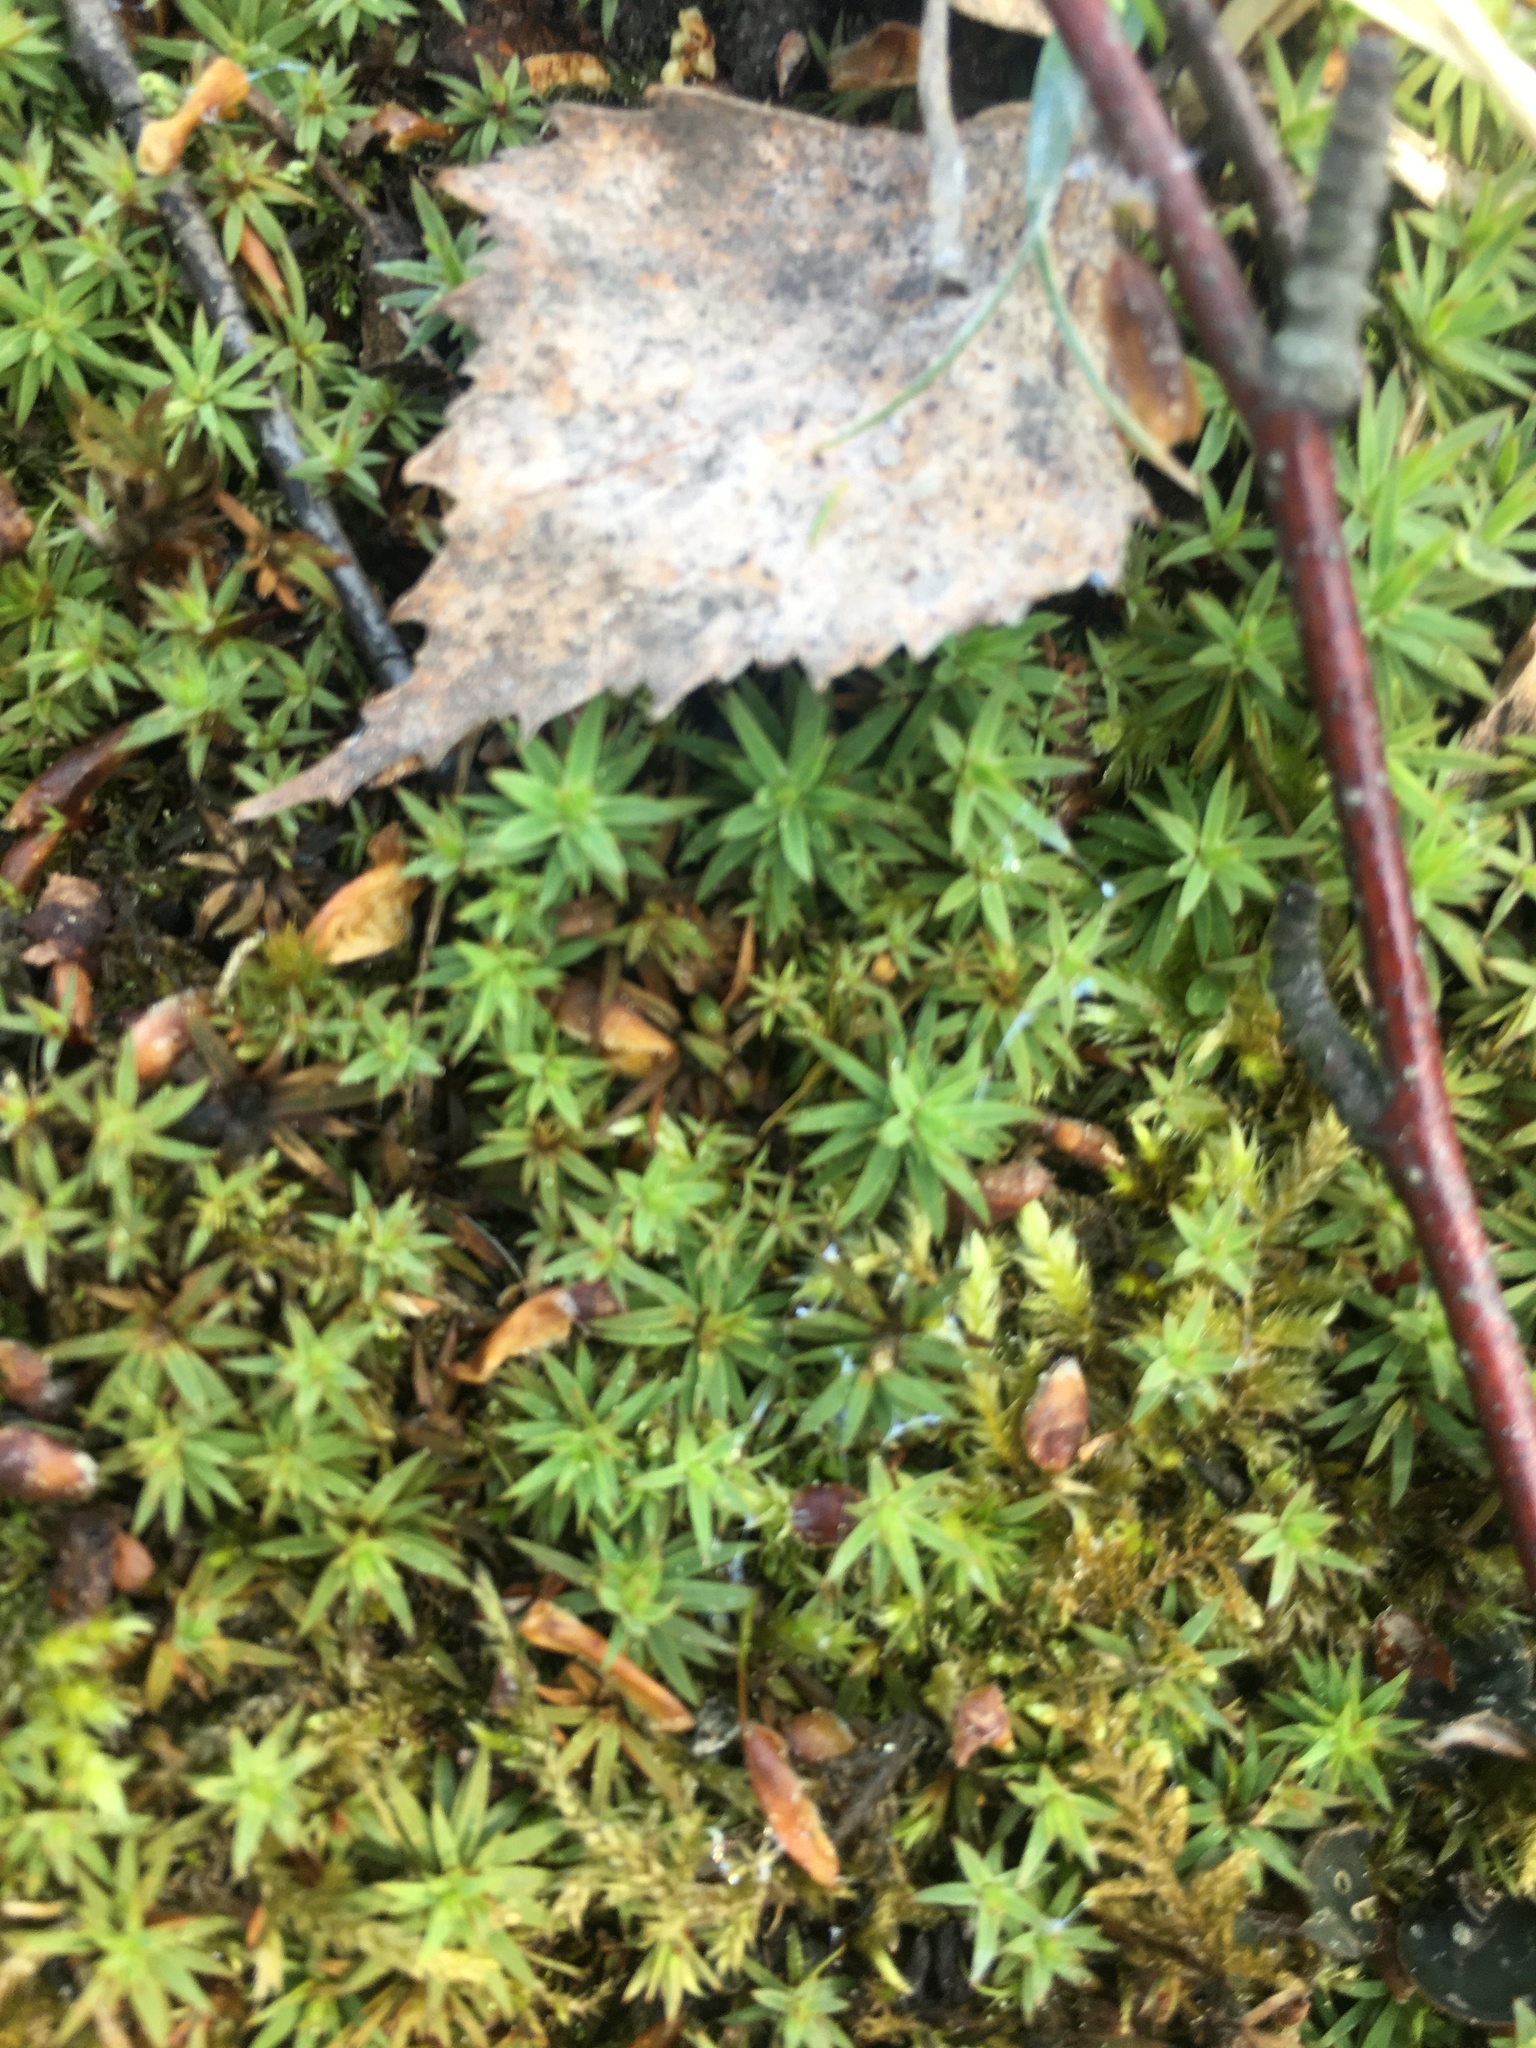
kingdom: Plantae
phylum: Bryophyta
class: Polytrichopsida
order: Polytrichales
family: Polytrichaceae
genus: Pogonatum
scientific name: Pogonatum urnigerum
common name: Urn hair moss
